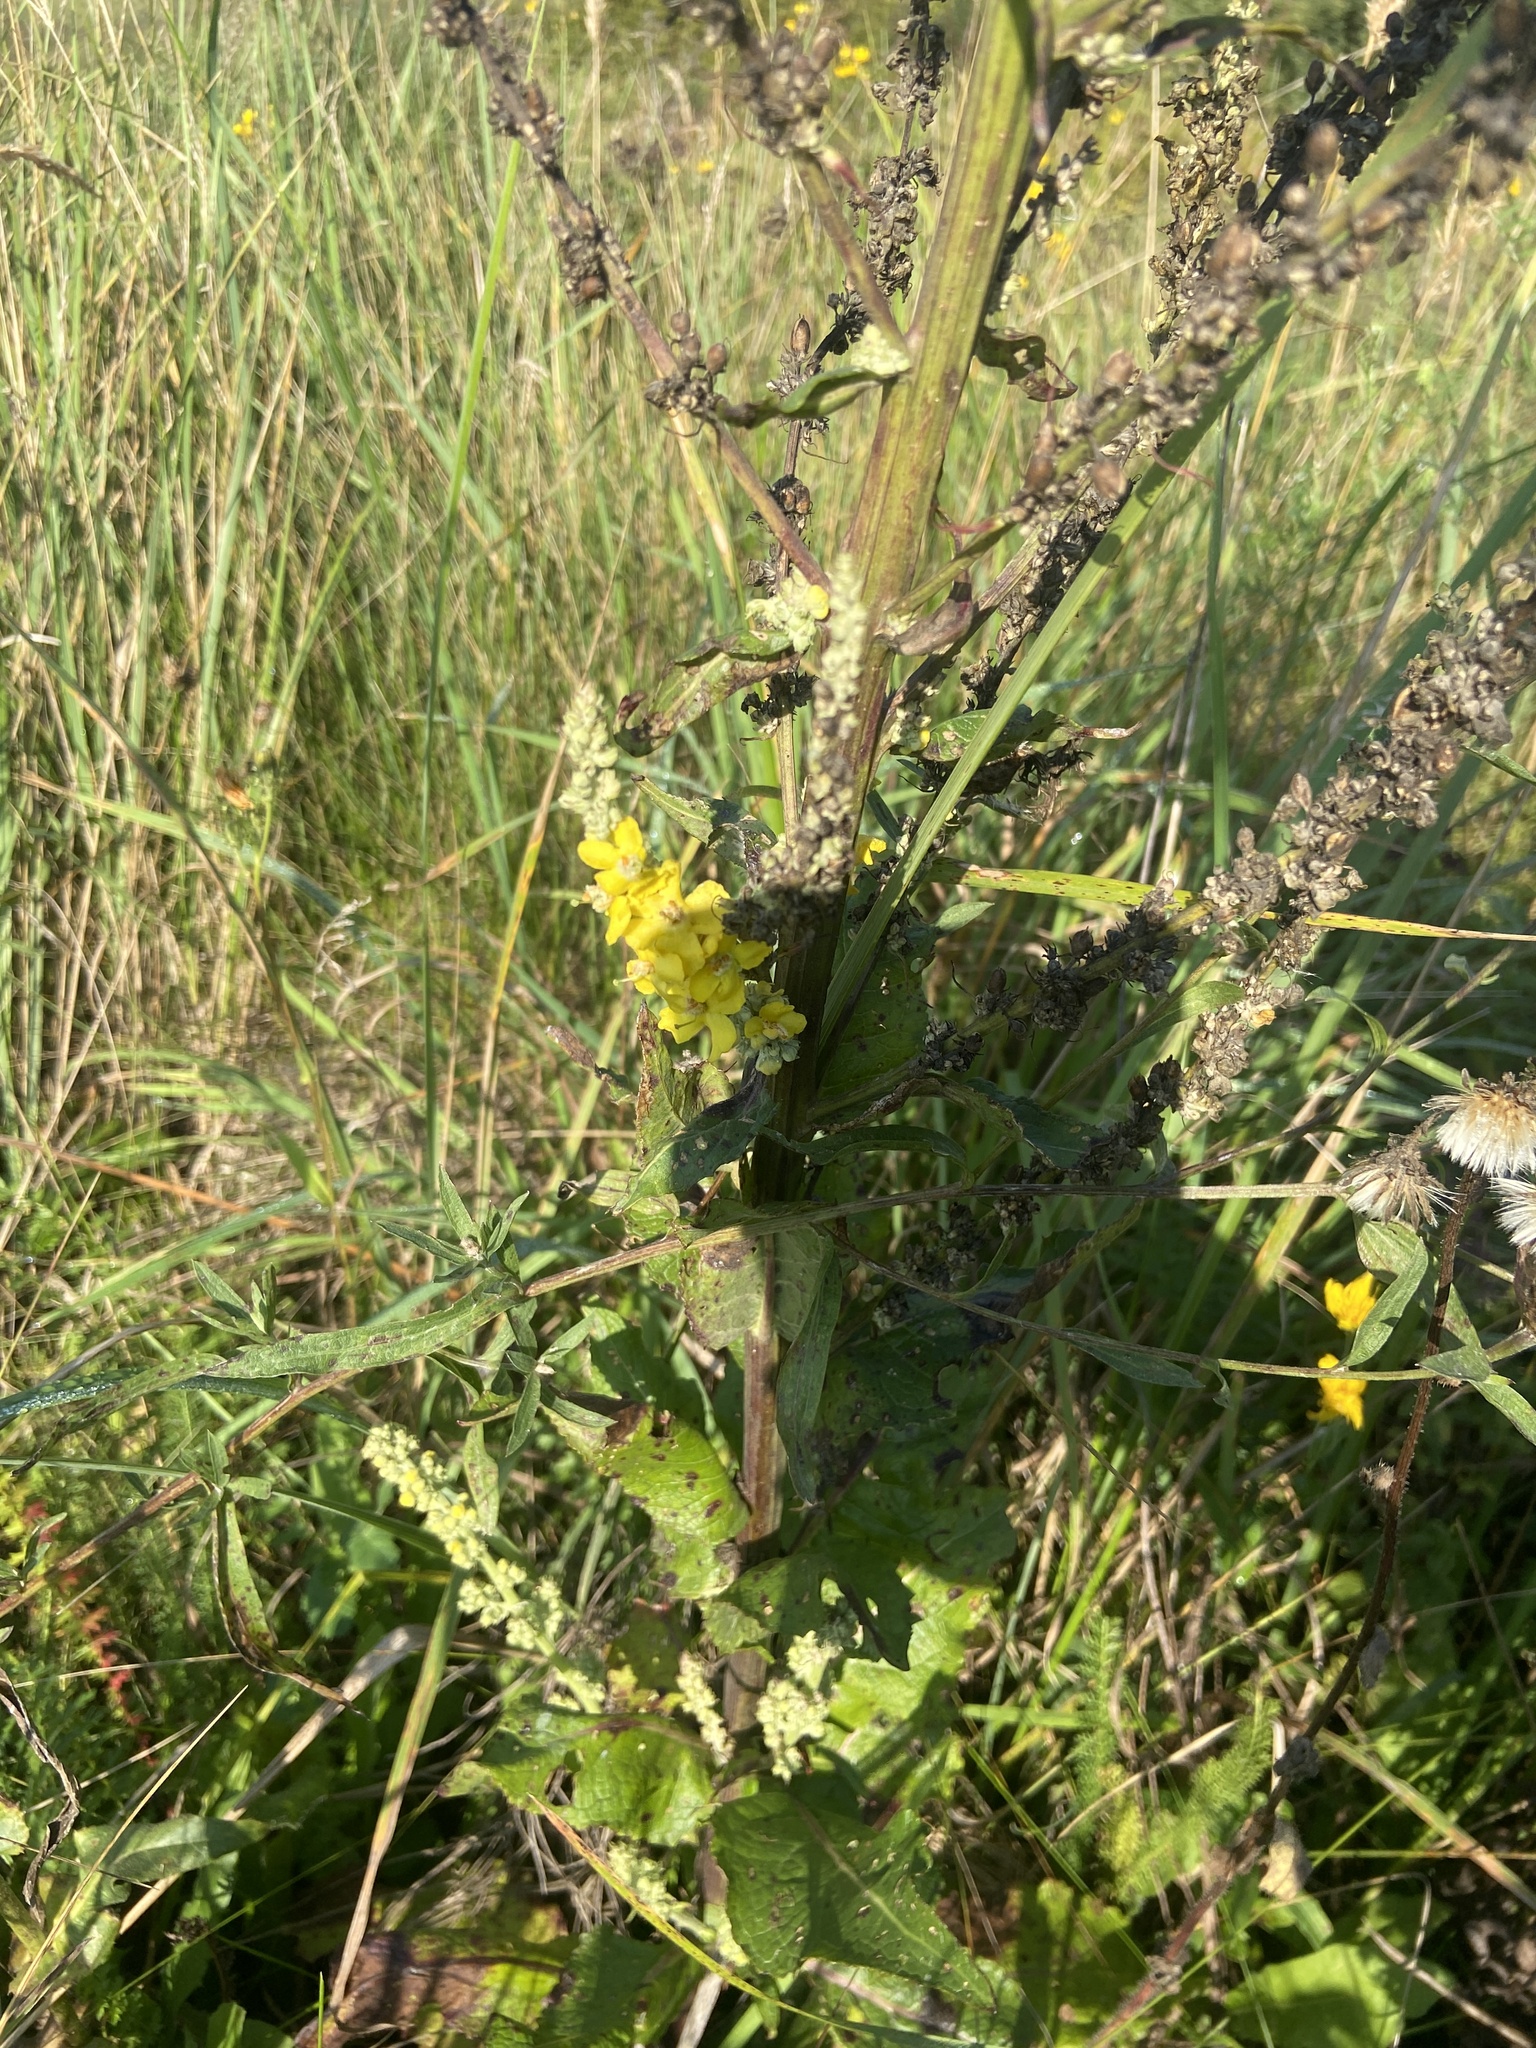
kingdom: Plantae
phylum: Tracheophyta
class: Magnoliopsida
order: Lamiales
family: Scrophulariaceae
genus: Verbascum
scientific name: Verbascum lychnitis
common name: White mullein
